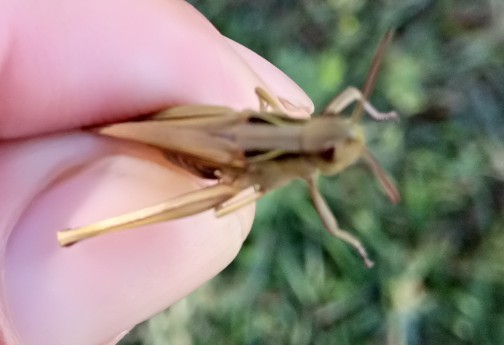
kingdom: Animalia
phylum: Arthropoda
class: Insecta
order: Orthoptera
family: Acrididae
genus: Omocestus
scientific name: Omocestus lucasii
